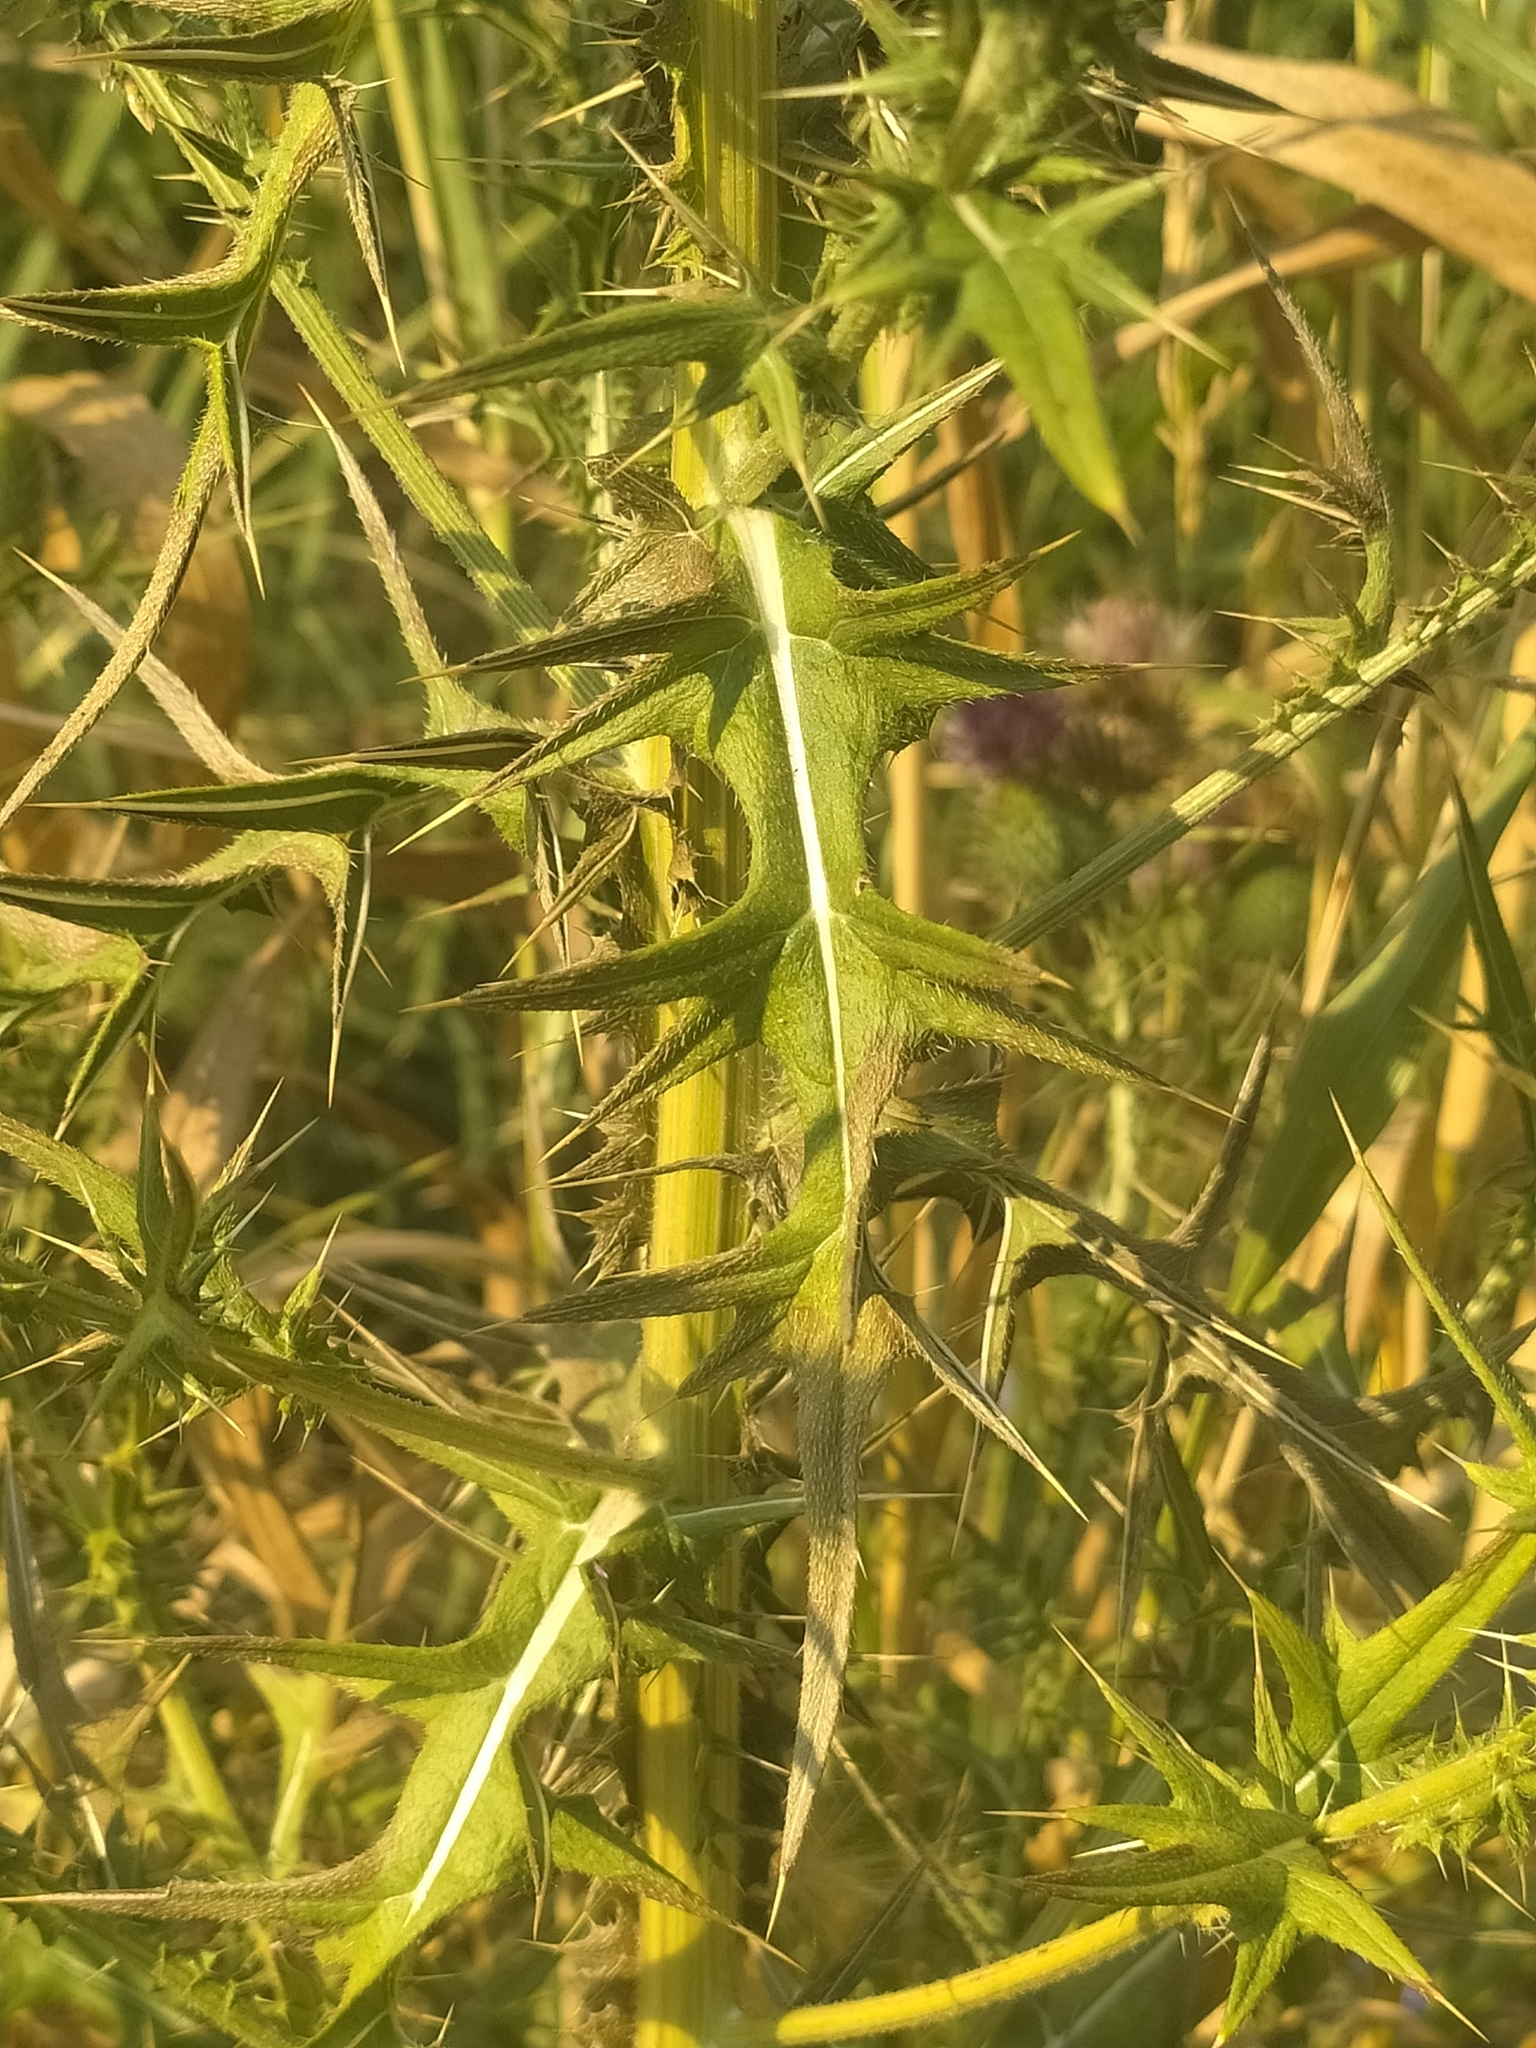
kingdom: Plantae
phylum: Tracheophyta
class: Magnoliopsida
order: Asterales
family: Asteraceae
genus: Cirsium
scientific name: Cirsium vulgare
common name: Bull thistle
